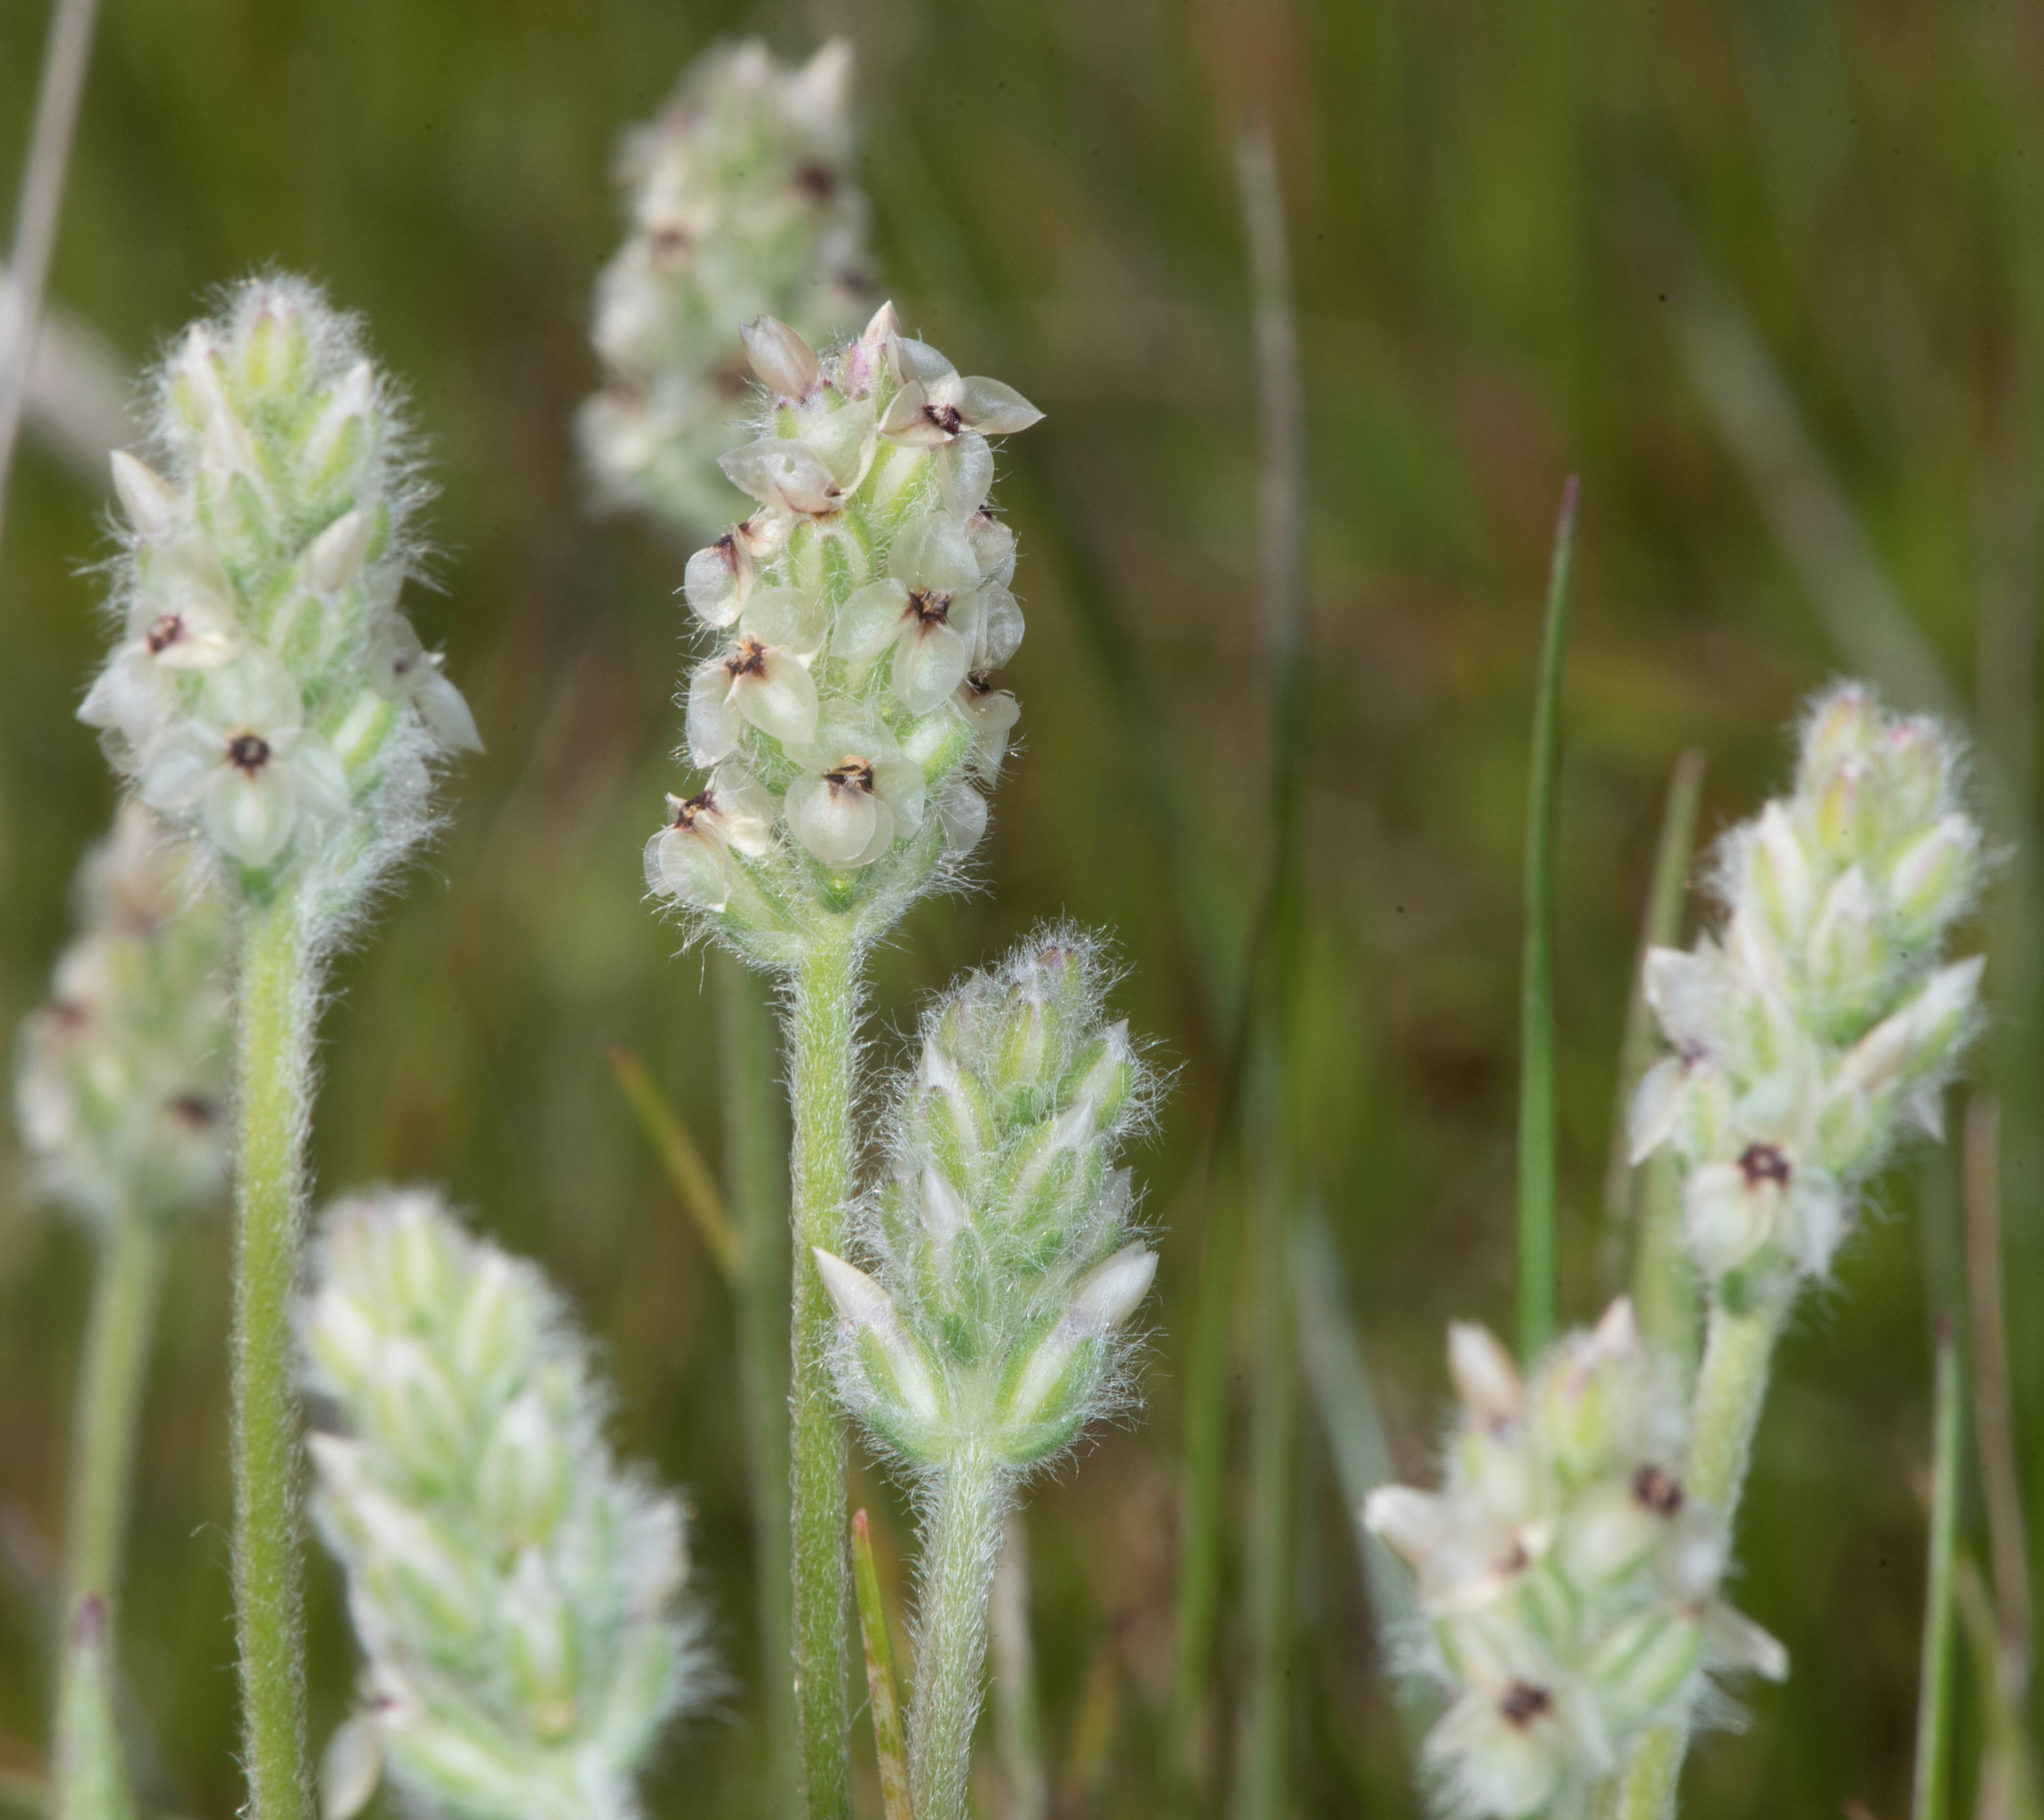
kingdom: Plantae
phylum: Tracheophyta
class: Magnoliopsida
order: Lamiales
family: Plantaginaceae
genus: Plantago
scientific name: Plantago erecta
